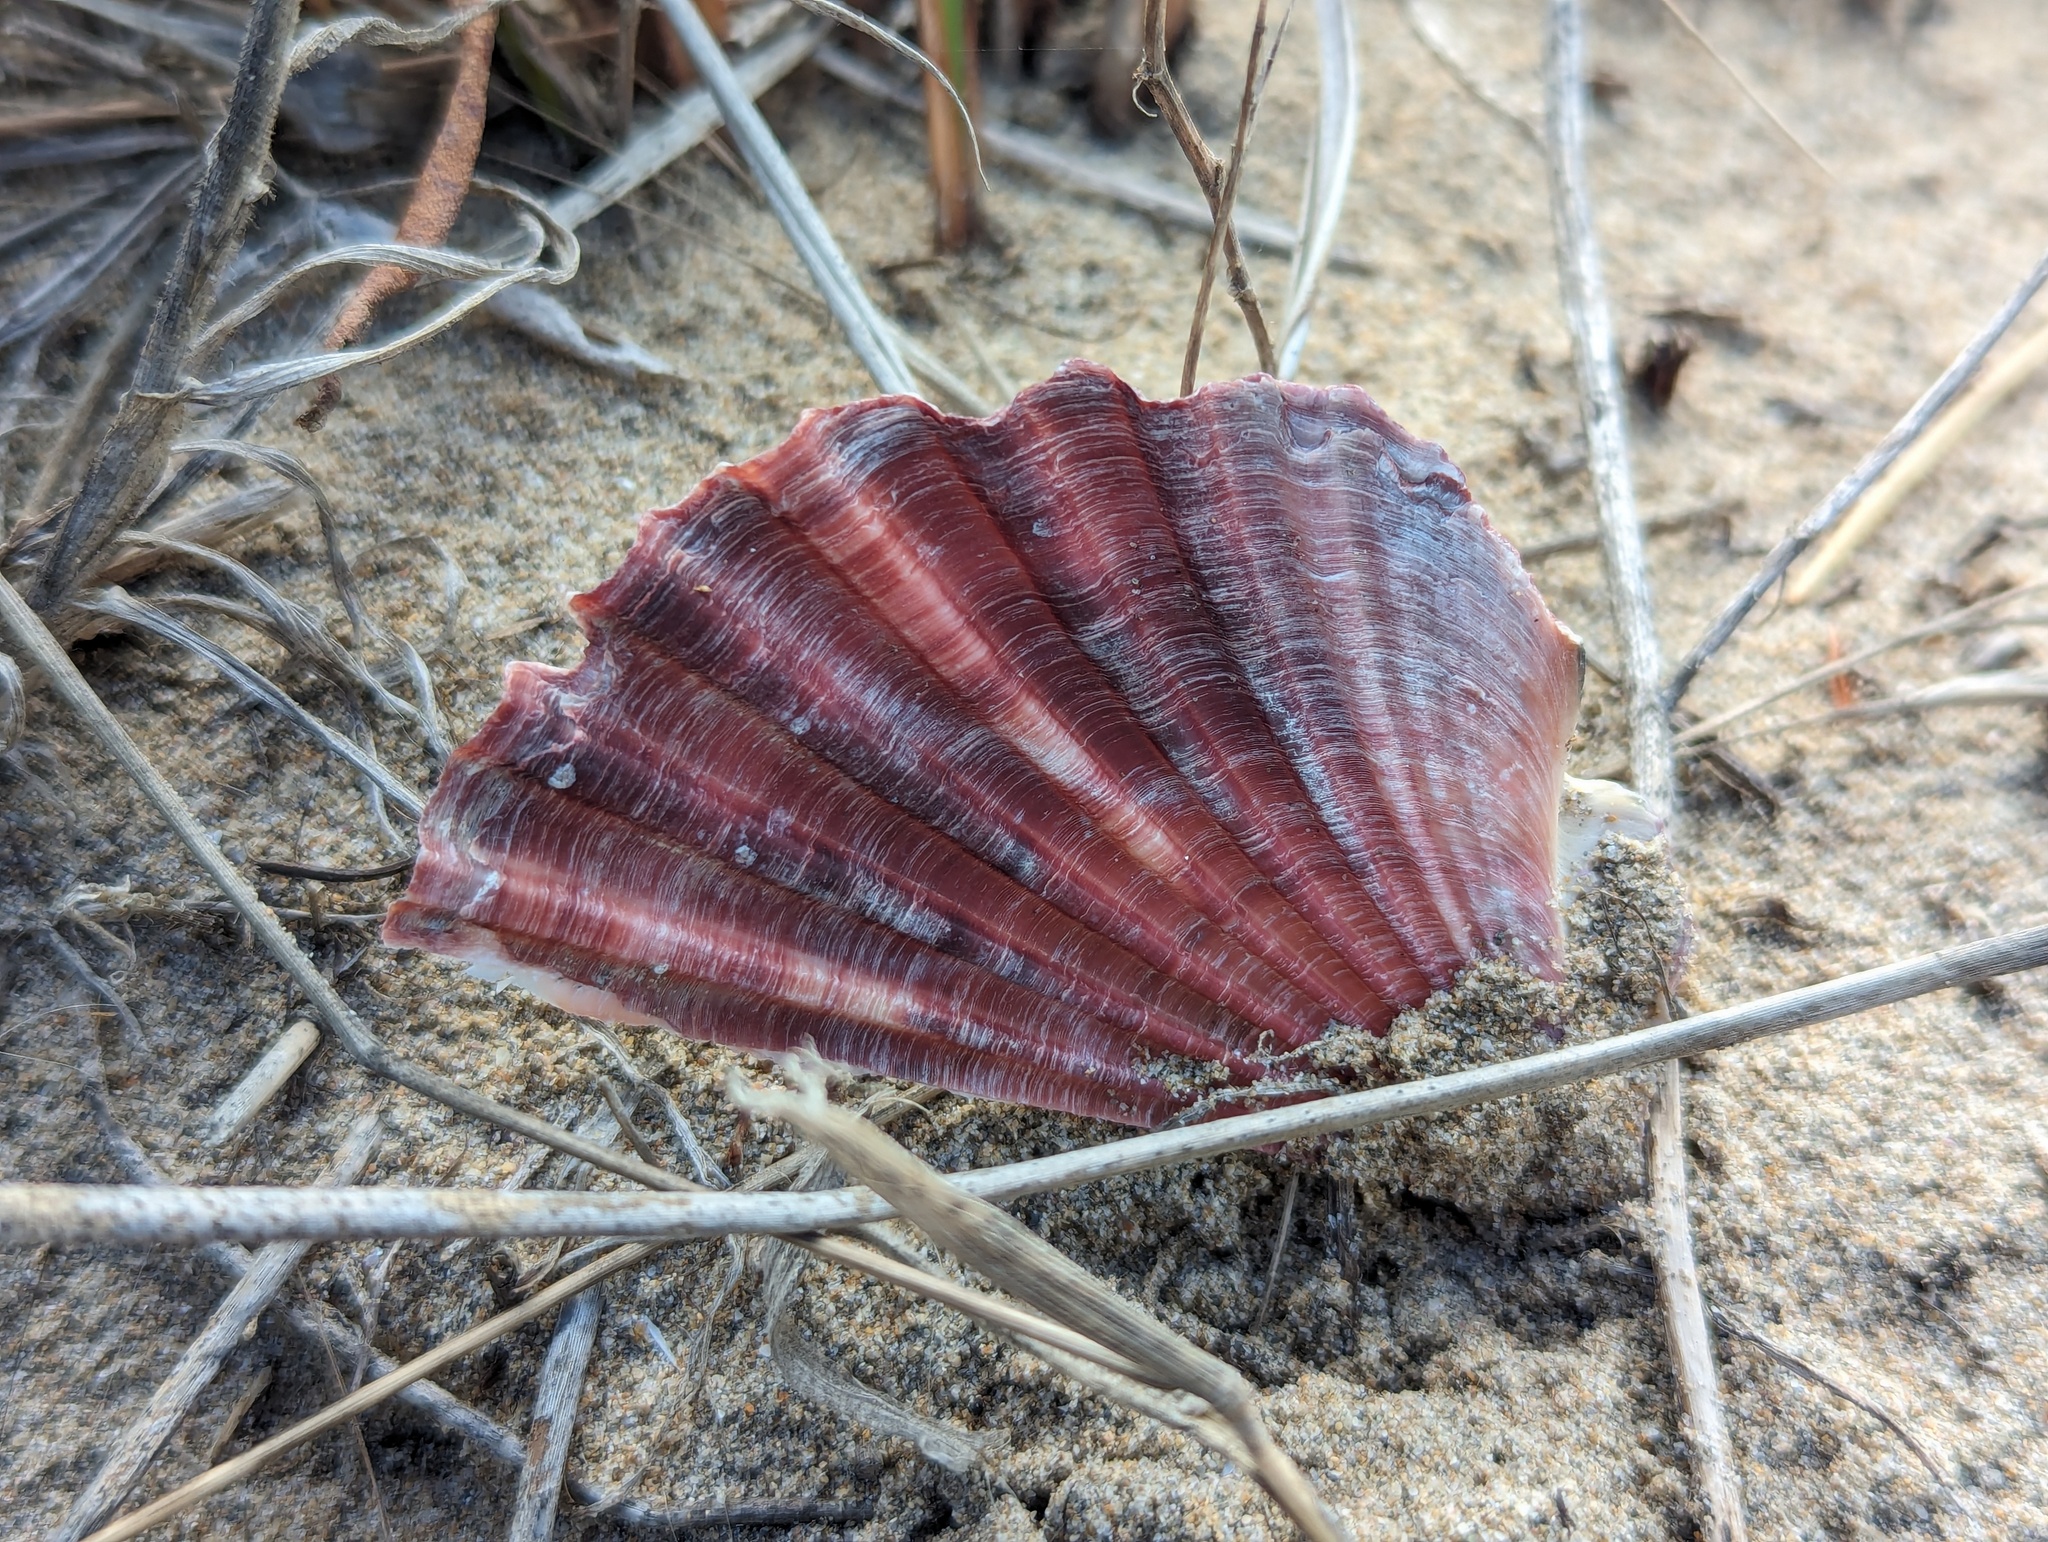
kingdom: Animalia
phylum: Mollusca
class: Bivalvia
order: Pectinida
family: Pectinidae
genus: Pecten
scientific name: Pecten fumatus
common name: Australian scallop
